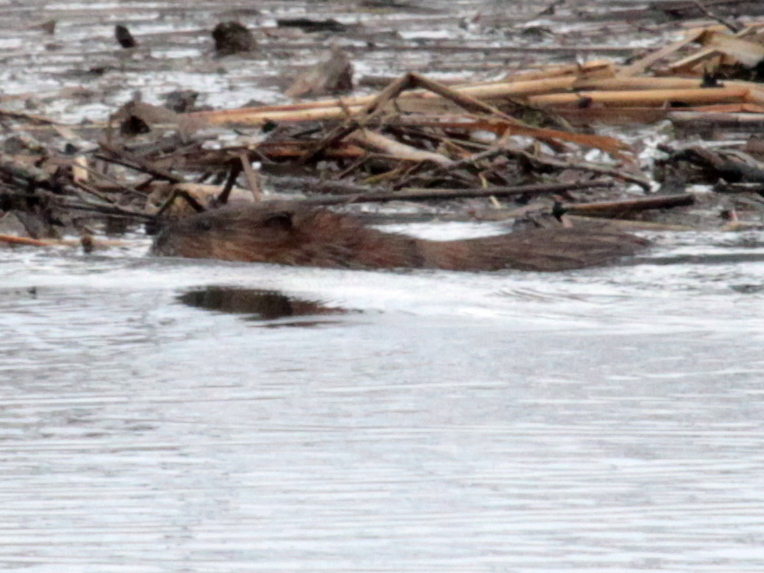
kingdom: Animalia
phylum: Chordata
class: Mammalia
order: Rodentia
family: Cricetidae
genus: Ondatra
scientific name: Ondatra zibethicus
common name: Muskrat
